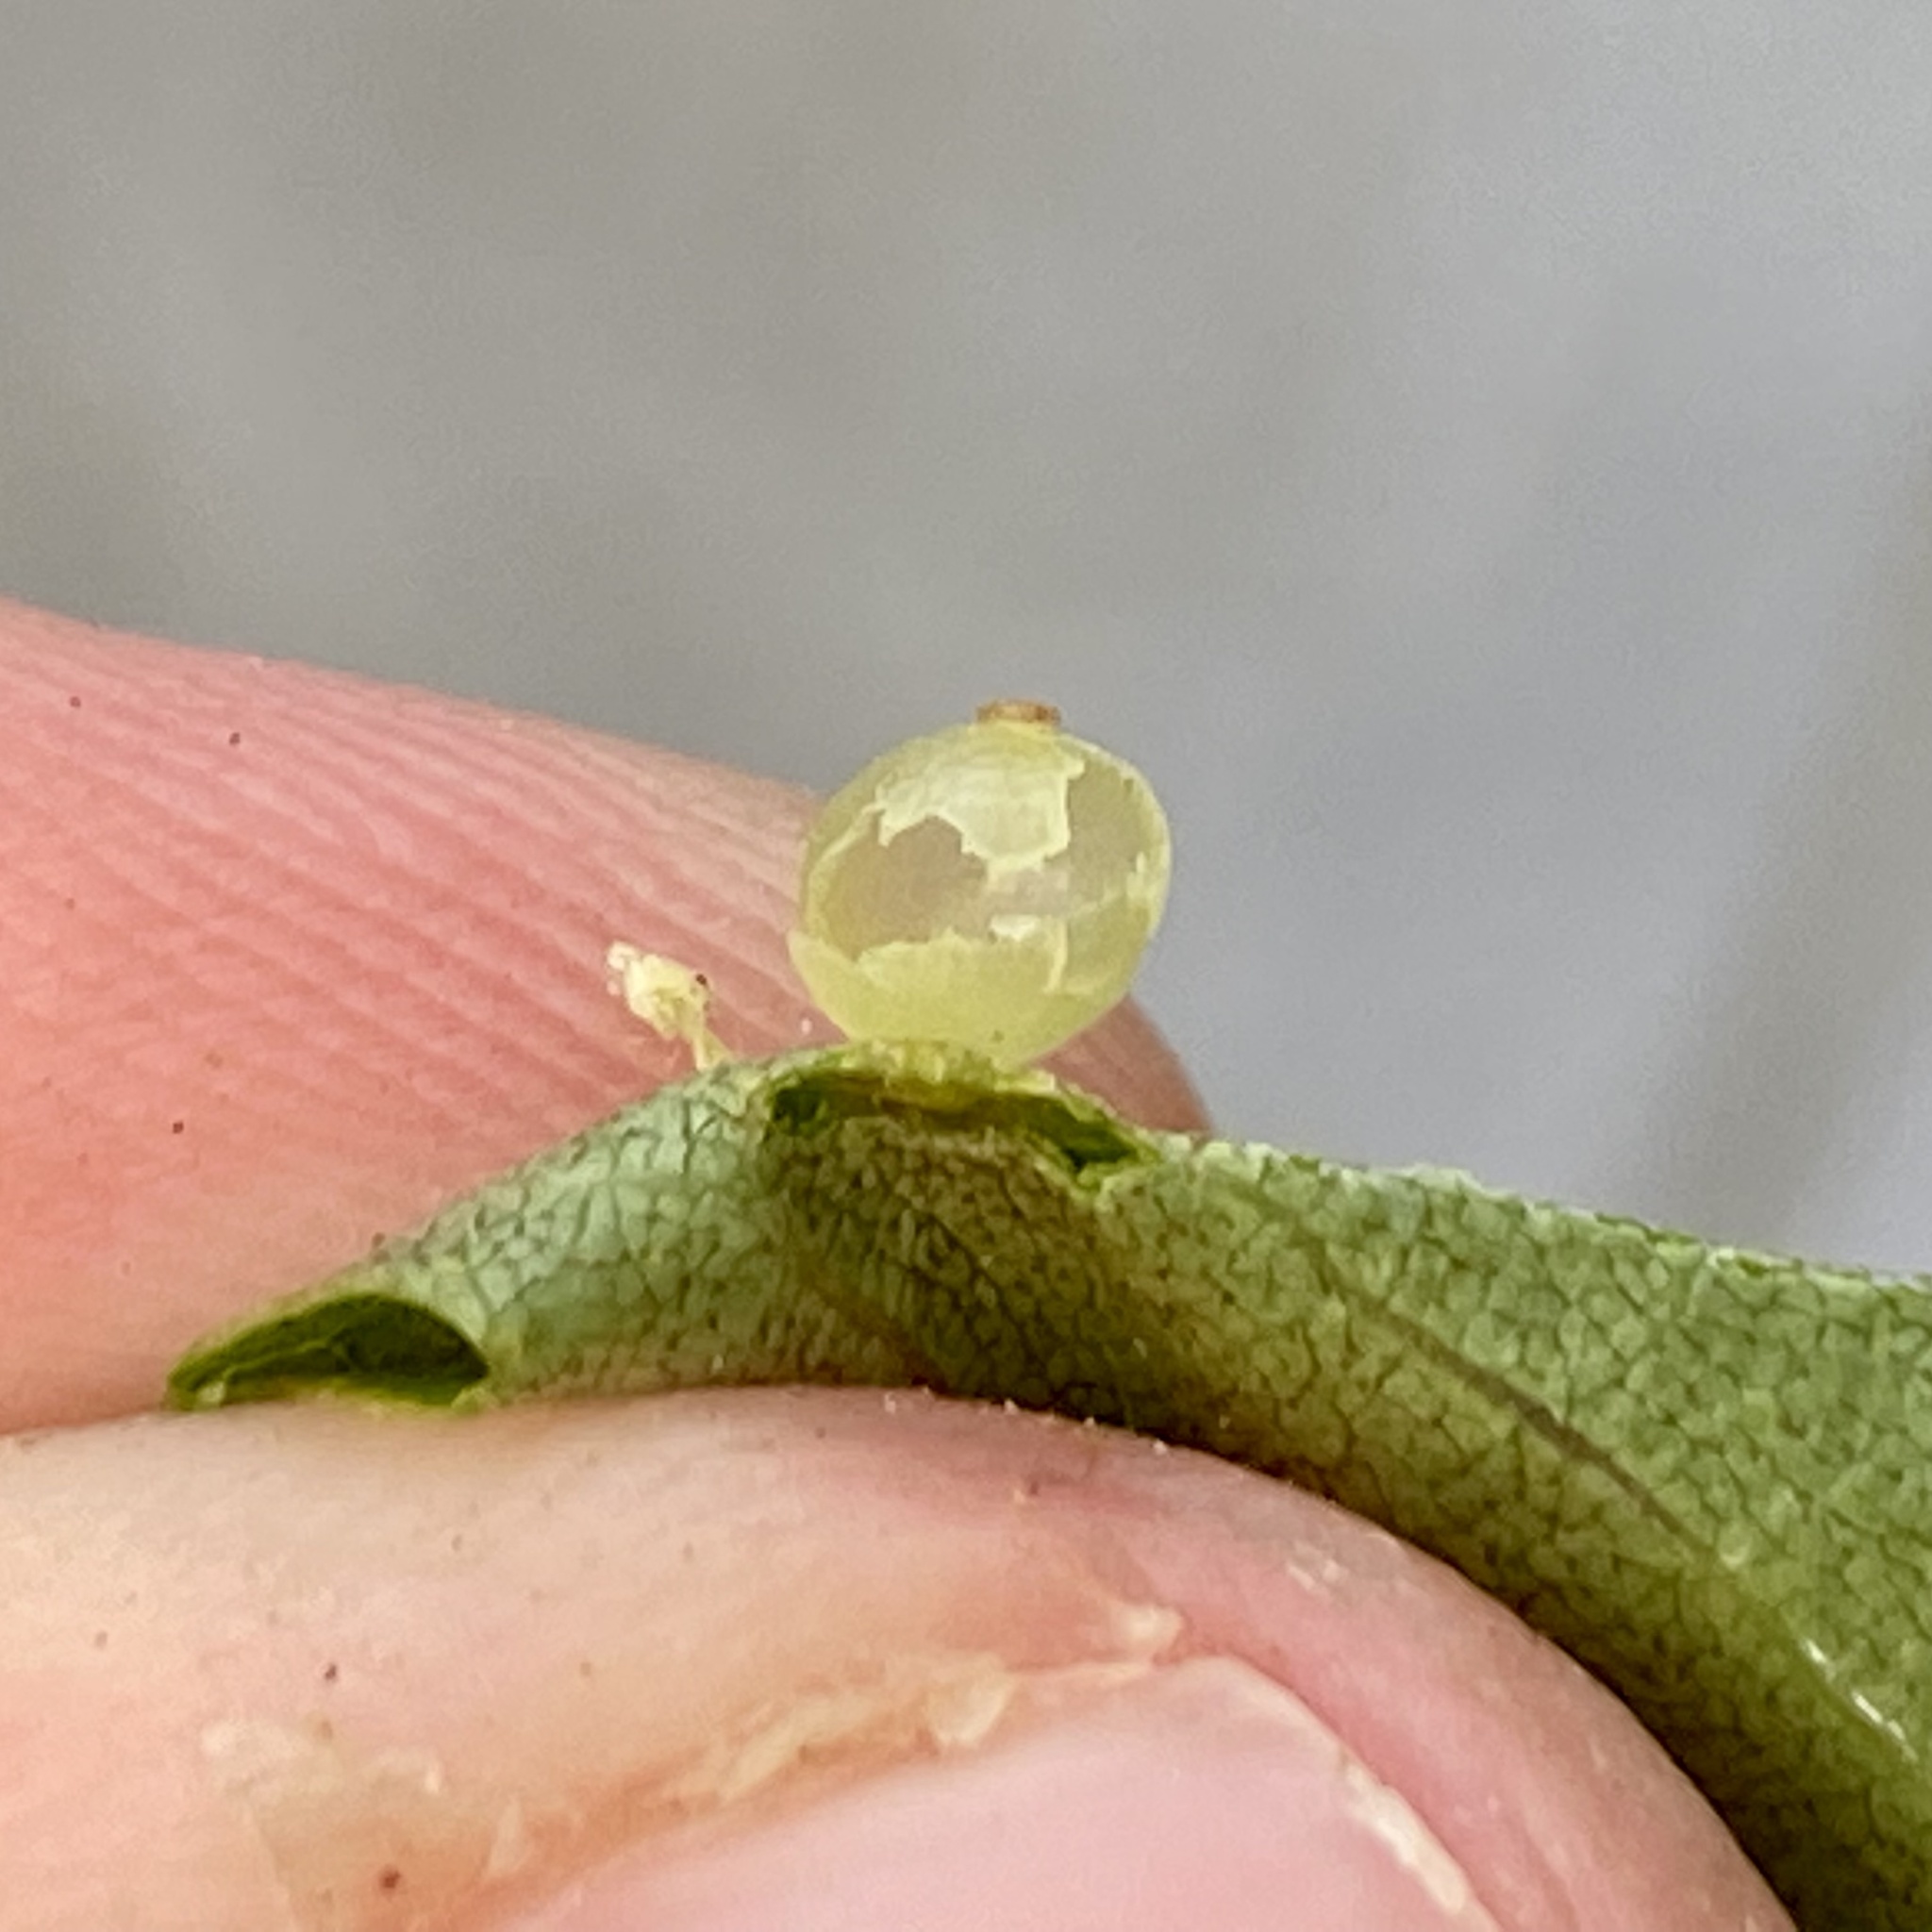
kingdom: Animalia
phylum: Arthropoda
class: Insecta
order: Diptera
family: Cecidomyiidae
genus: Caryomyia
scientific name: Caryomyia leviglobus
